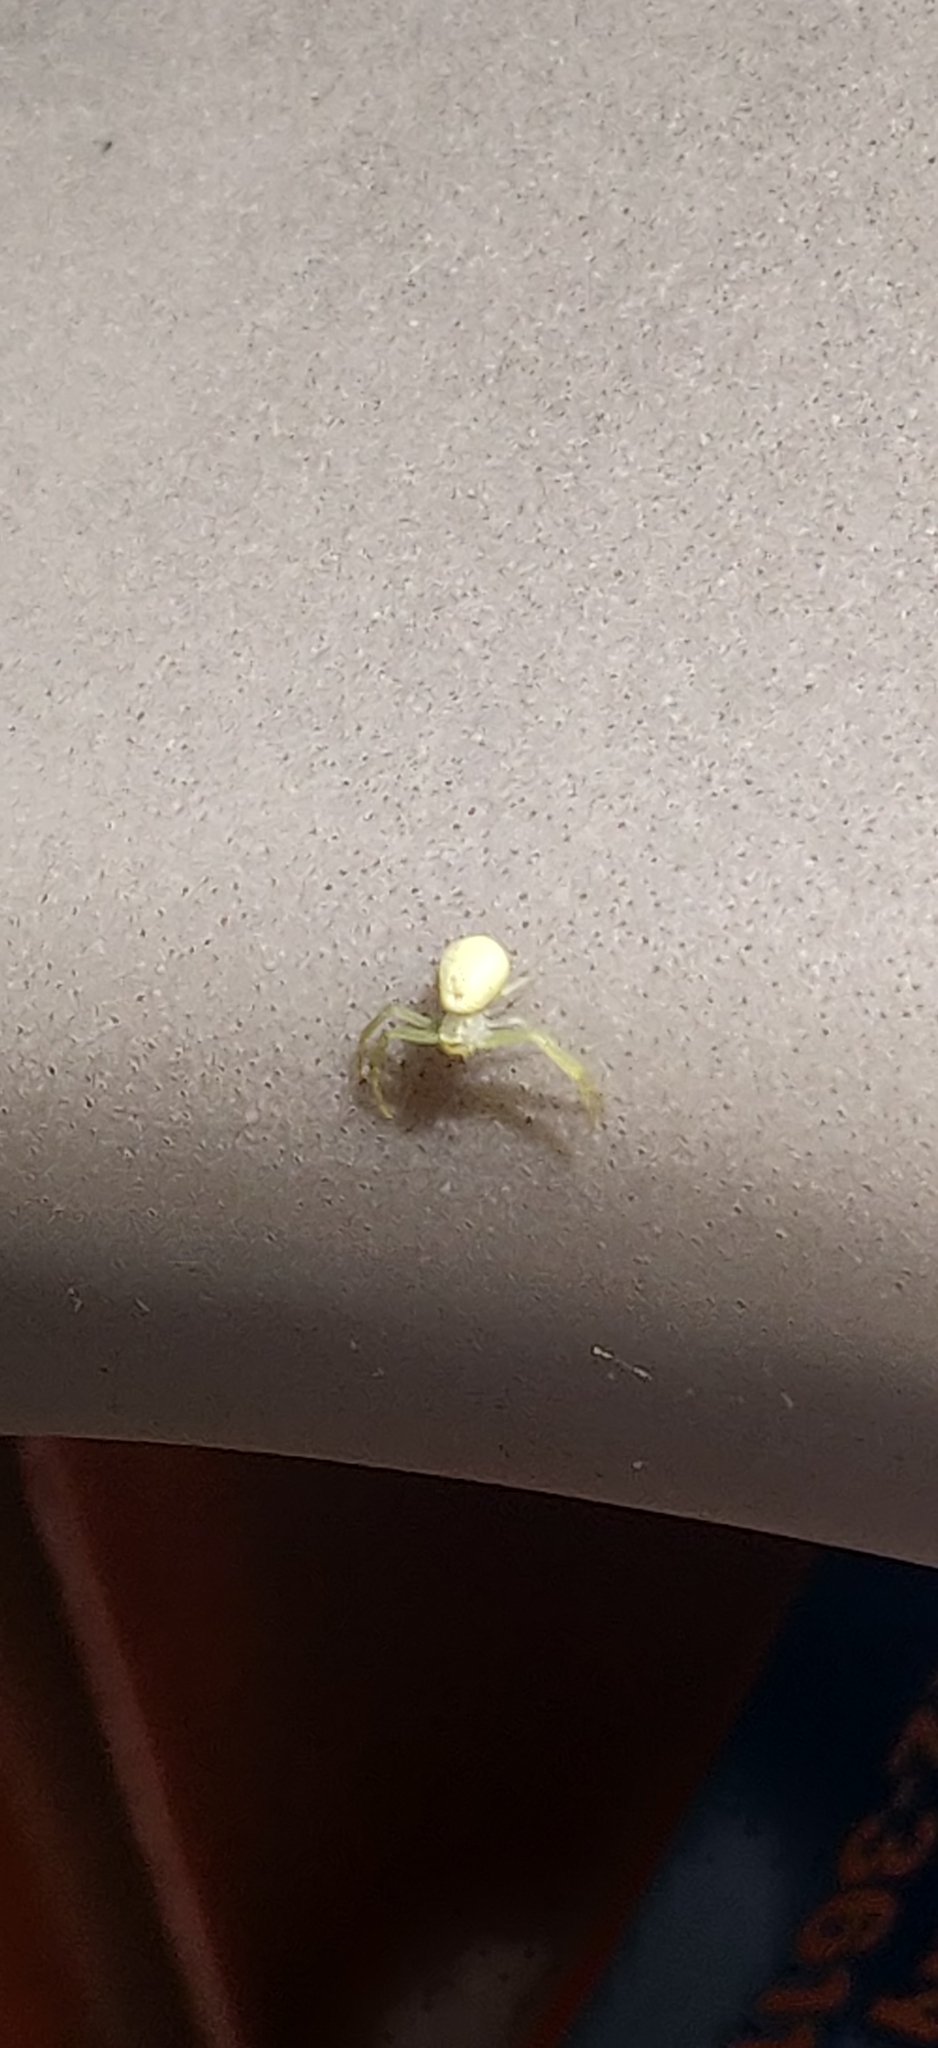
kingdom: Animalia
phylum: Arthropoda
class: Arachnida
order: Araneae
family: Thomisidae
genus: Misumessus
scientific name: Misumessus oblongus
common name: American green crab spider
